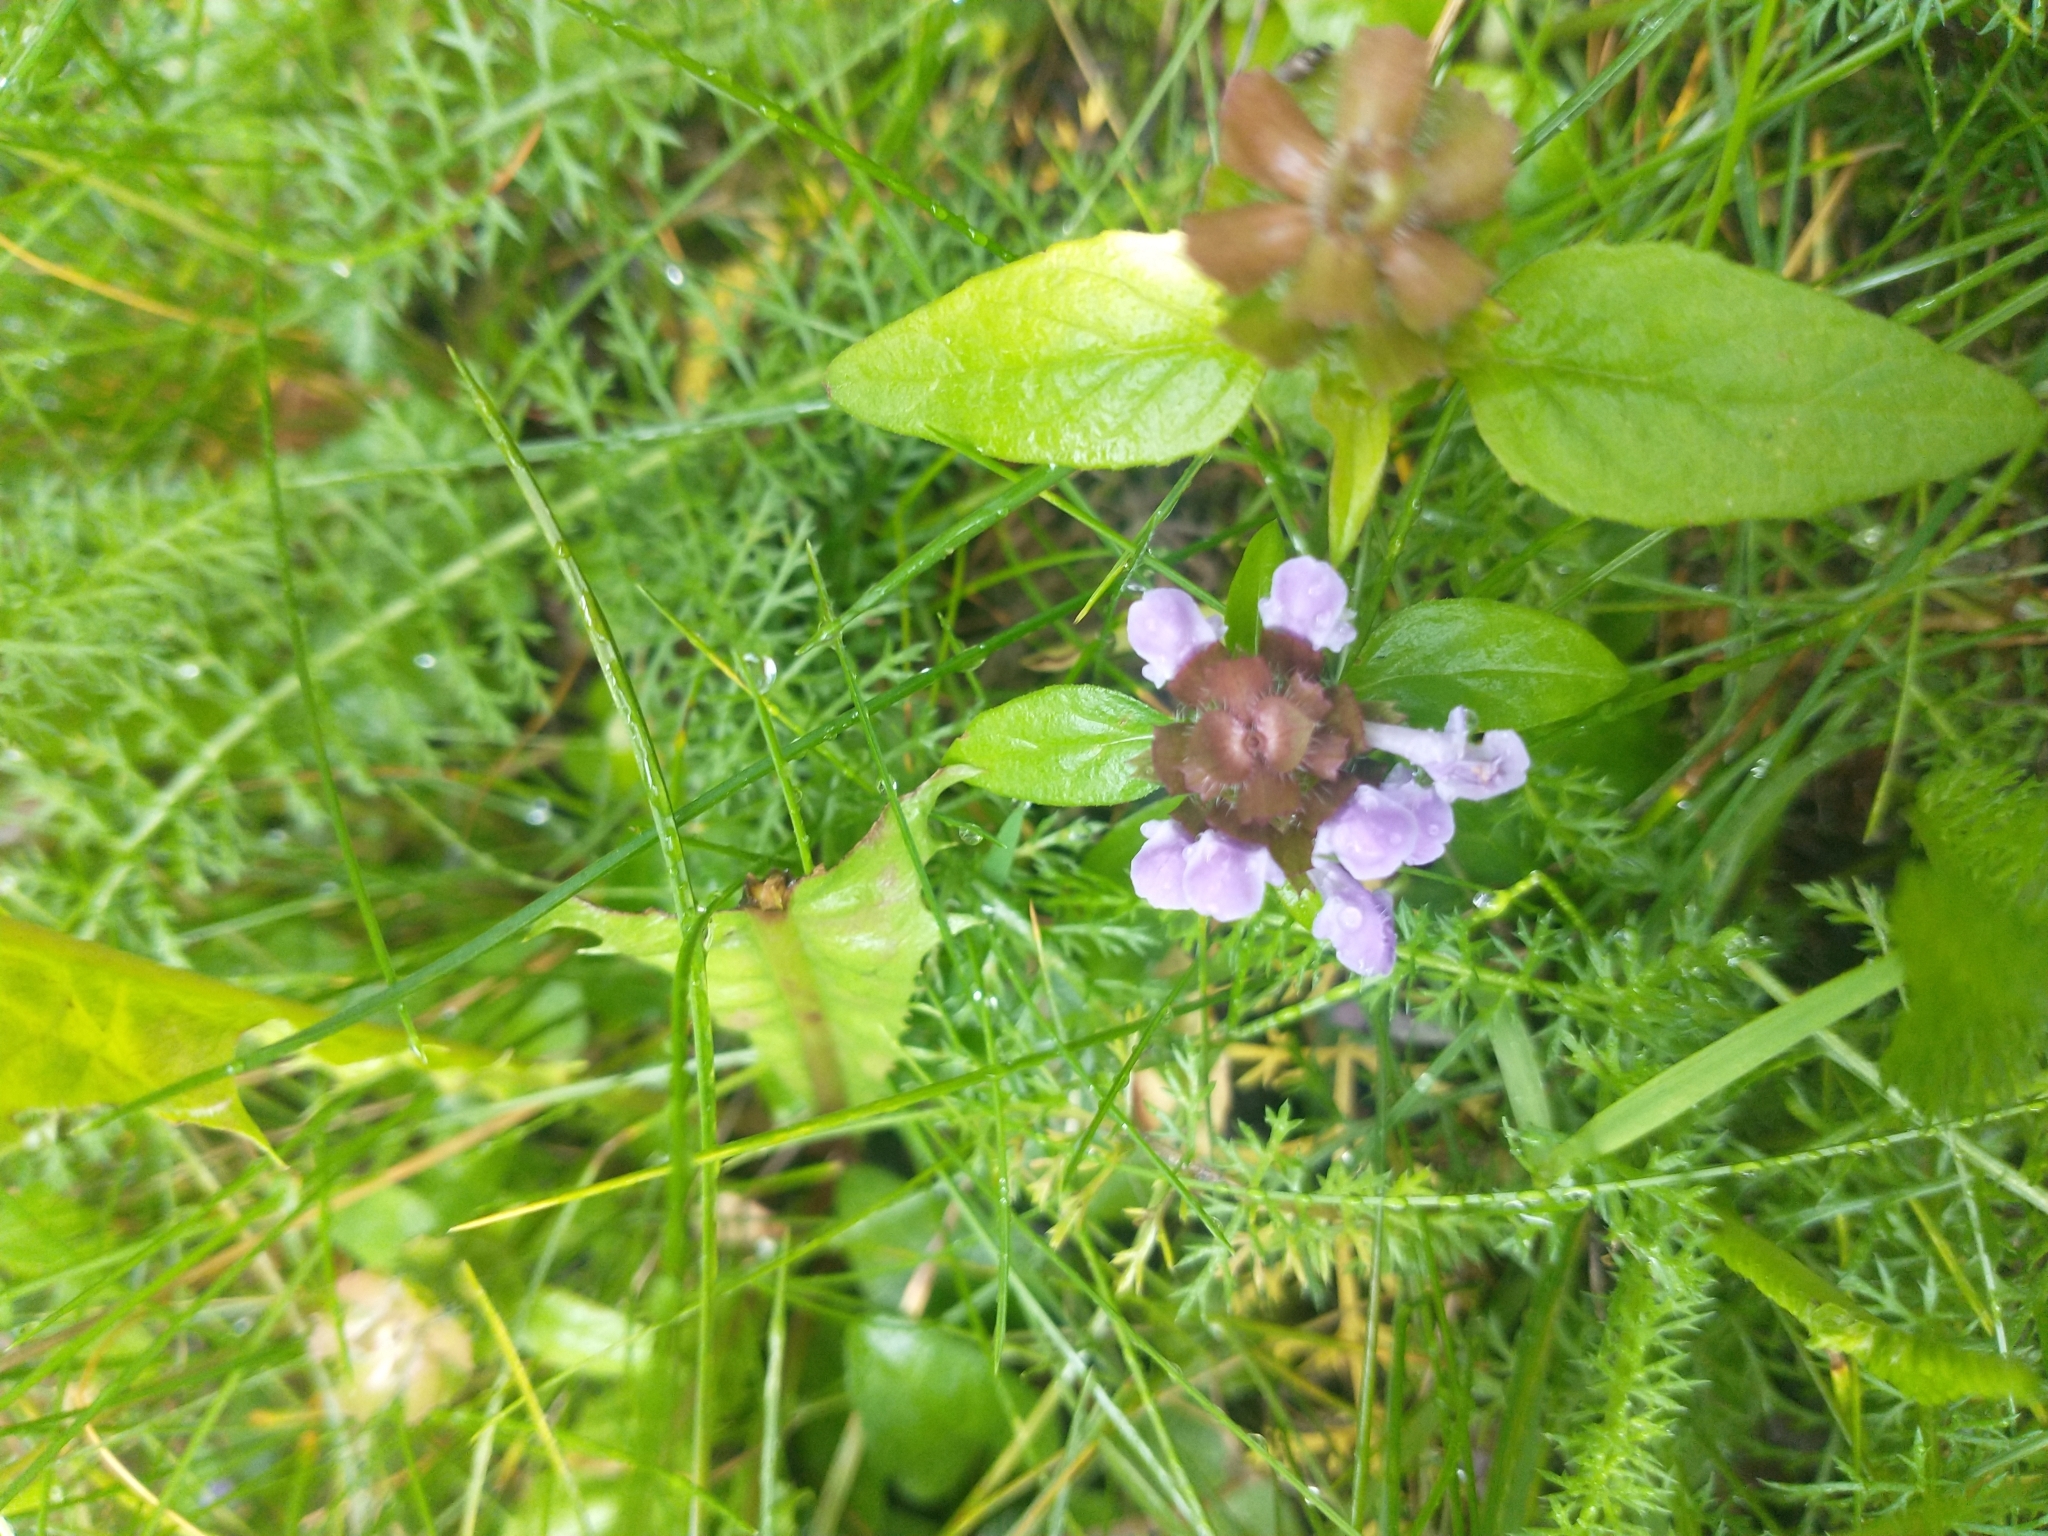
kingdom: Plantae
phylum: Tracheophyta
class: Magnoliopsida
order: Lamiales
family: Lamiaceae
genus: Prunella
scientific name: Prunella vulgaris
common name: Heal-all
